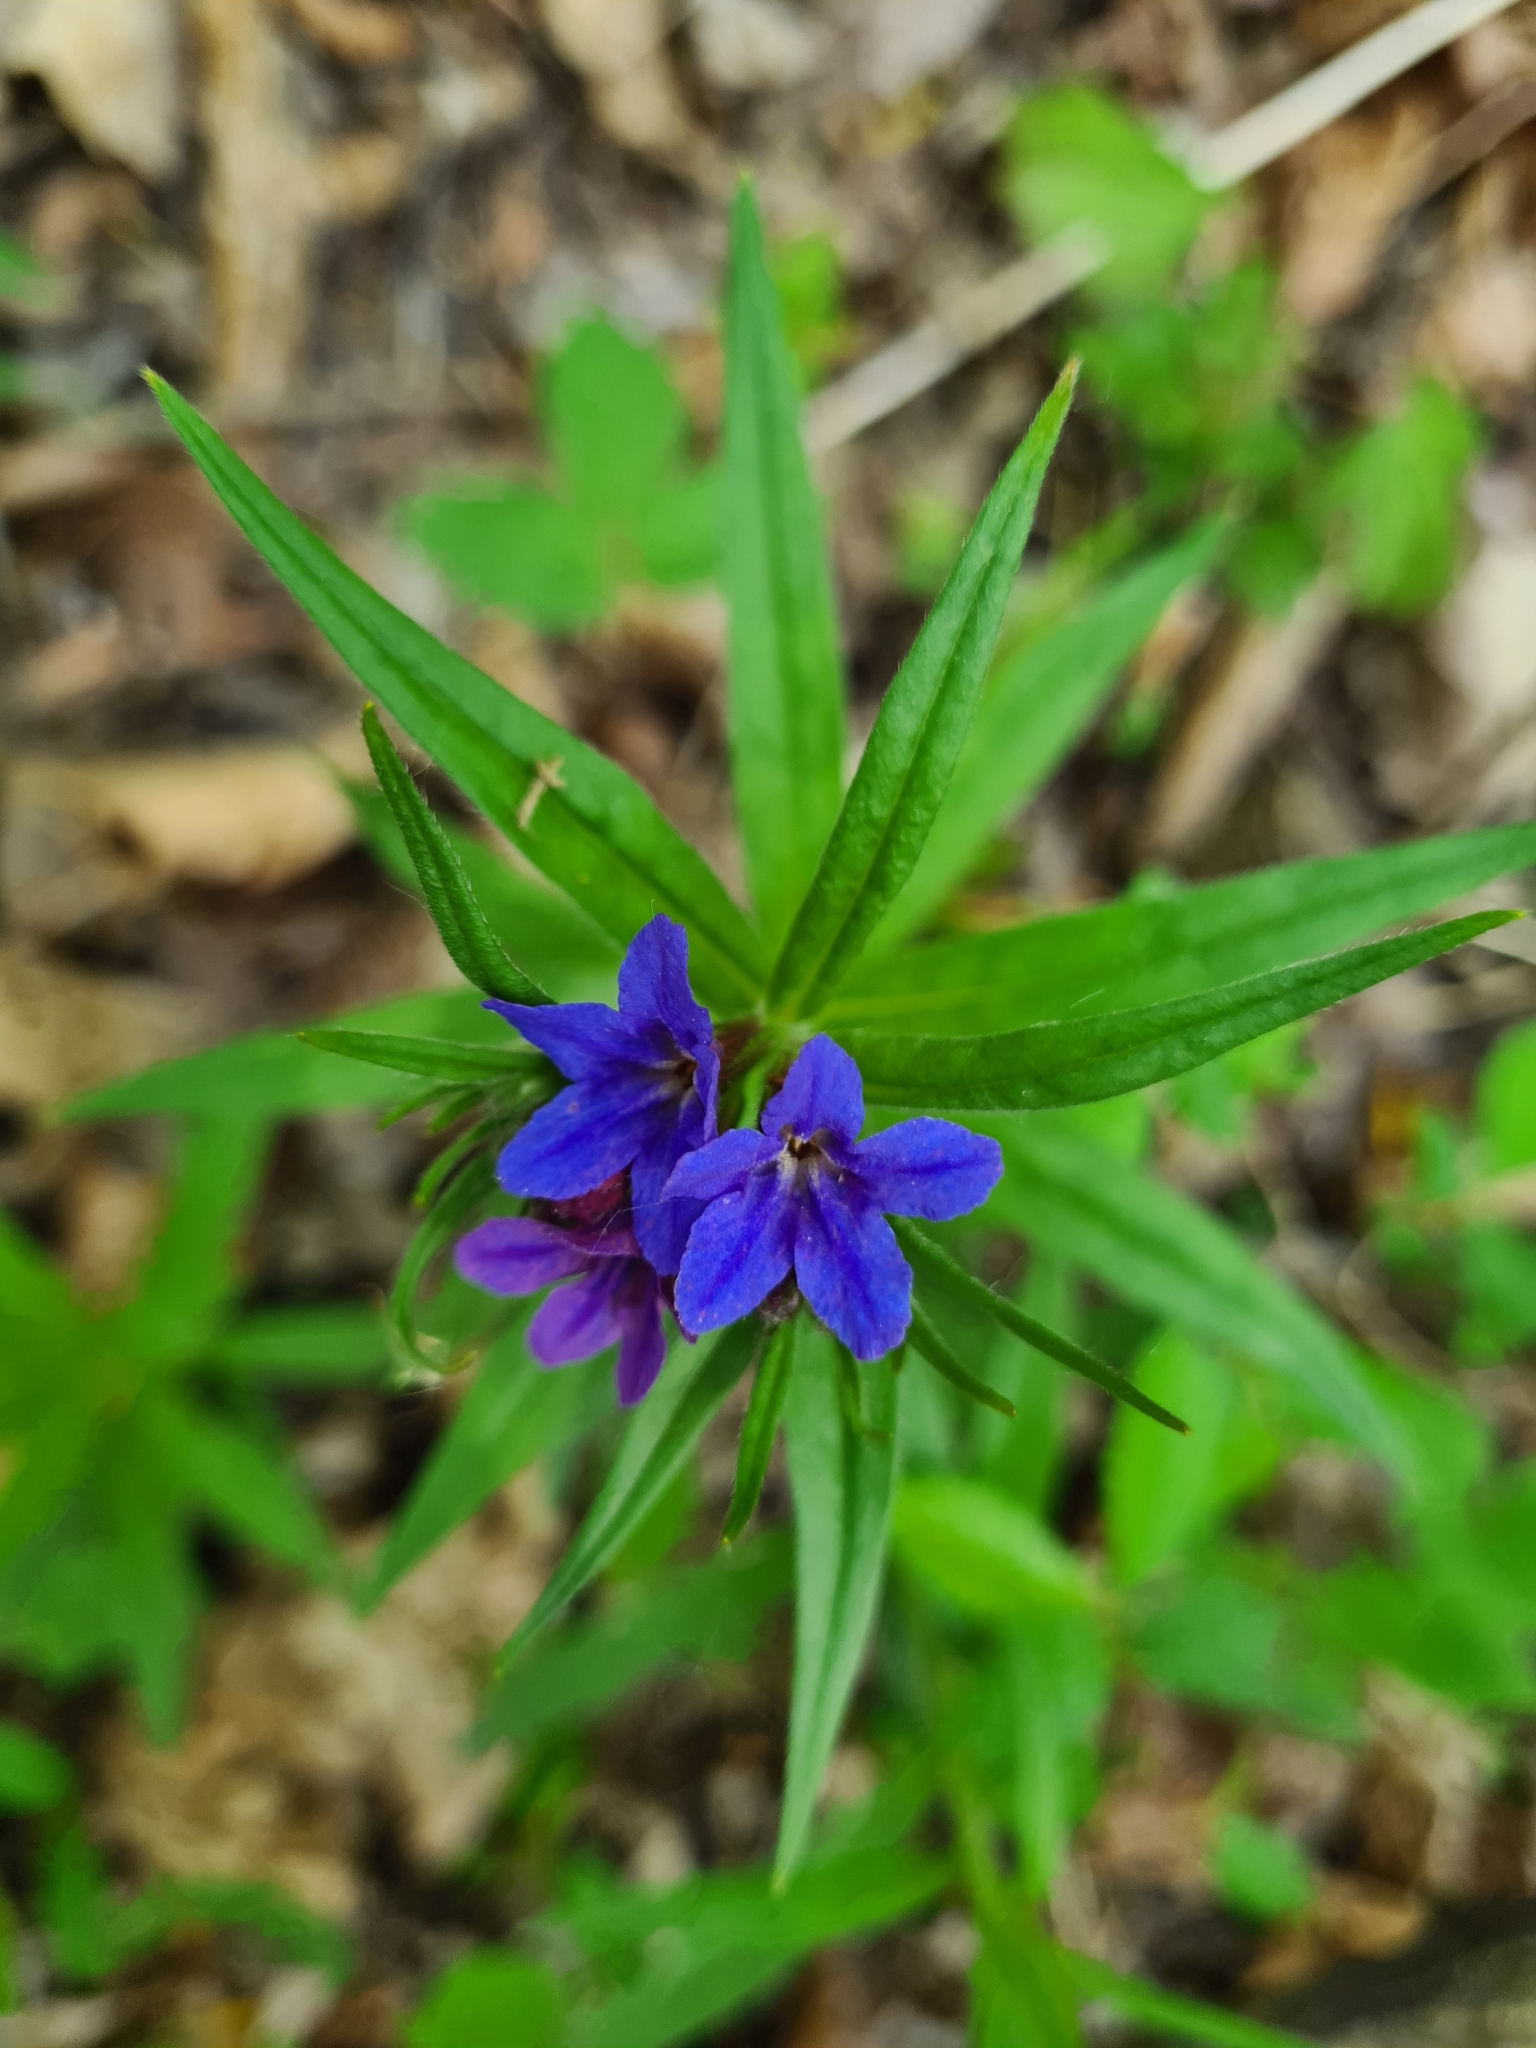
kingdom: Plantae
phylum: Tracheophyta
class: Magnoliopsida
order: Boraginales
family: Boraginaceae
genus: Aegonychon
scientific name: Aegonychon purpurocaeruleum
